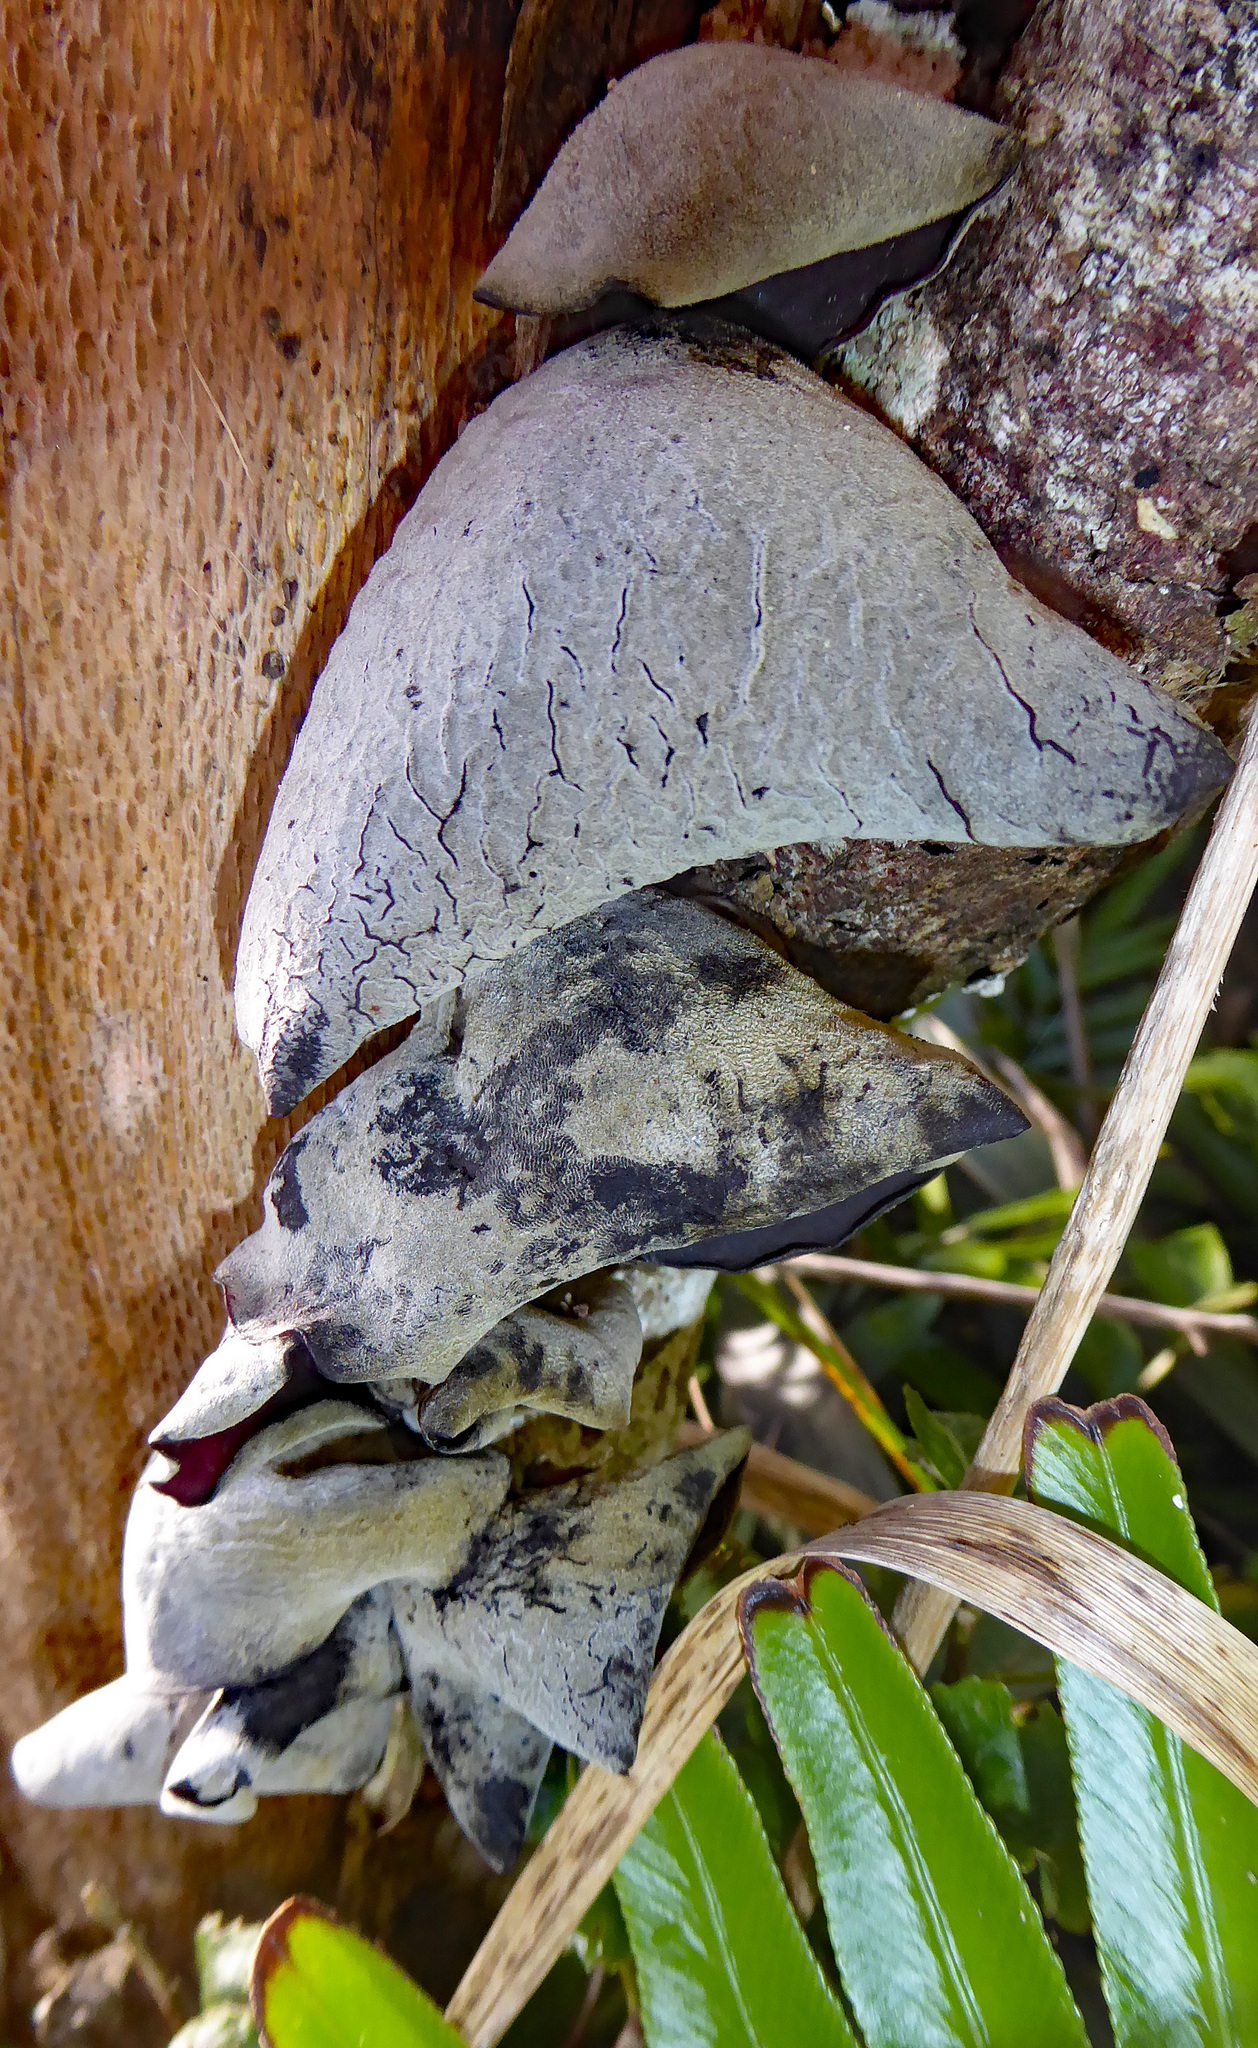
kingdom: Fungi
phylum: Basidiomycota
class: Agaricomycetes
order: Auriculariales
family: Auriculariaceae
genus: Auricularia
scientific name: Auricularia cornea
